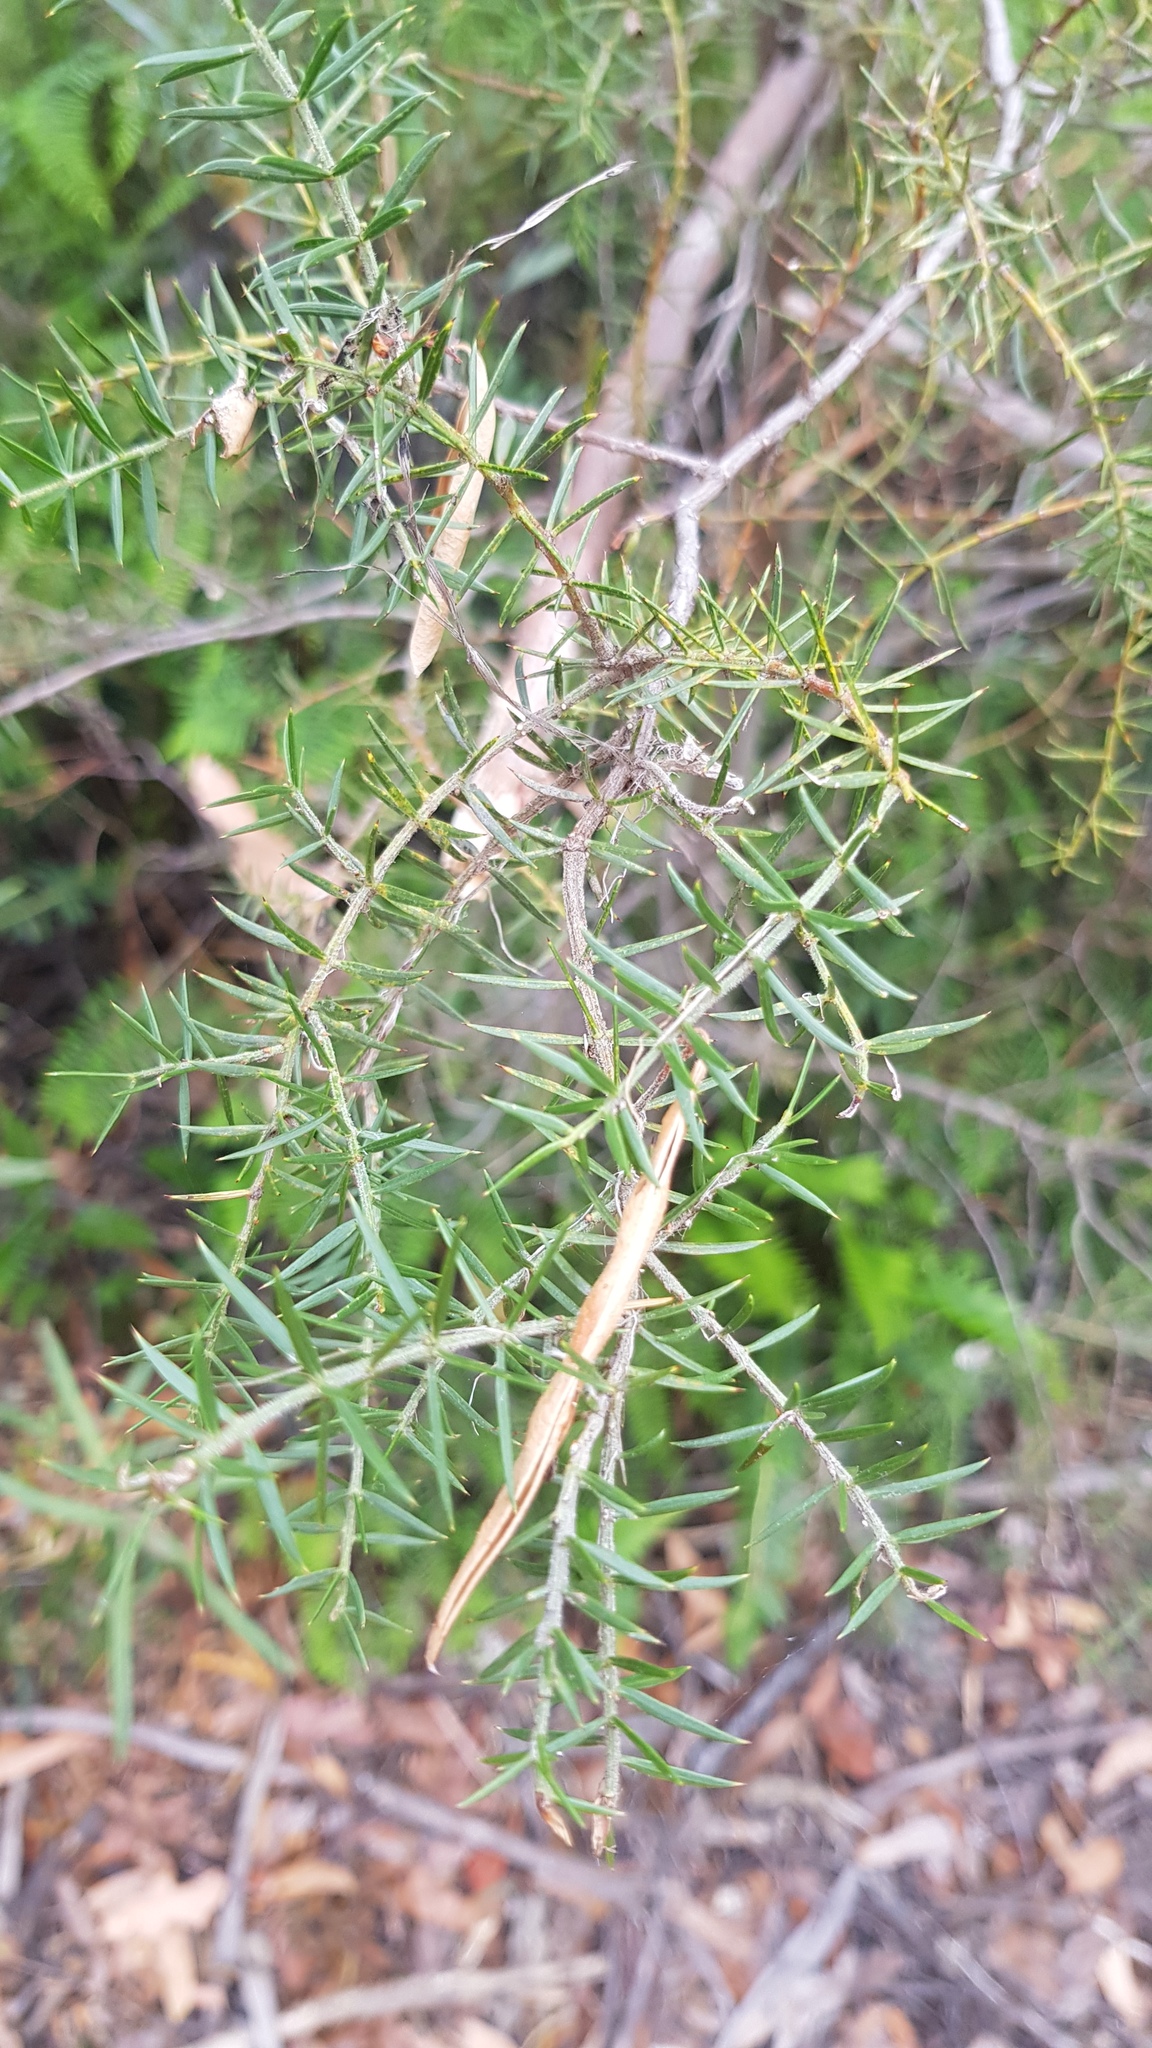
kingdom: Plantae
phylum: Tracheophyta
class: Magnoliopsida
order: Fabales
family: Fabaceae
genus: Acacia
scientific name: Acacia verticillata
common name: Prickly moses
